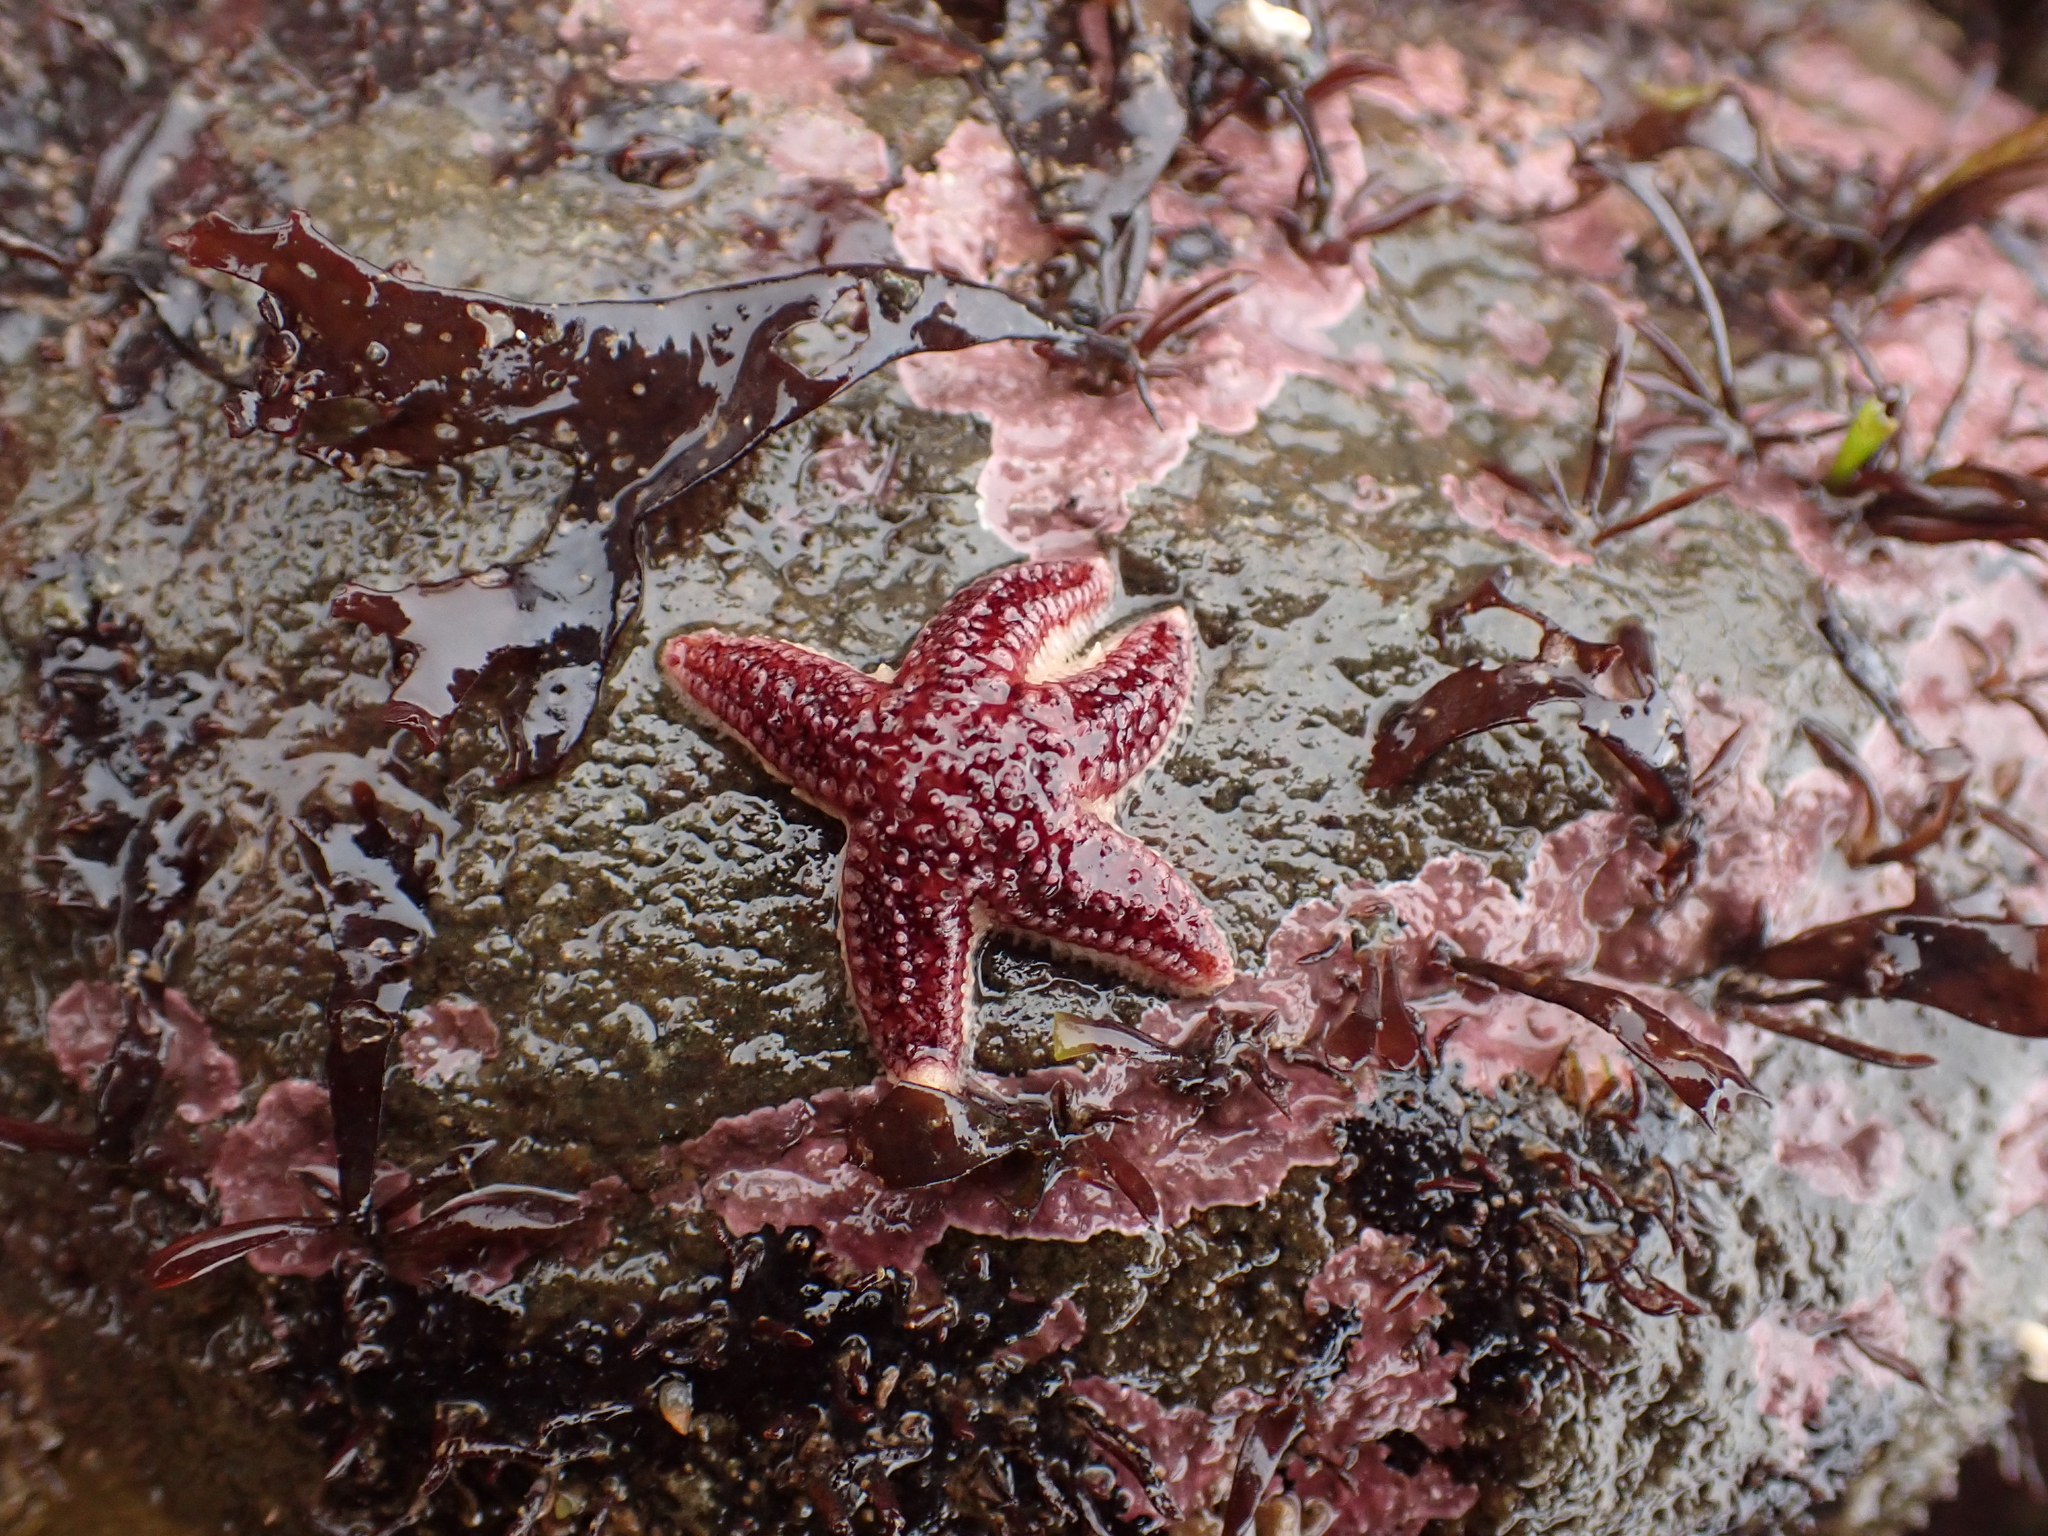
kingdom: Animalia
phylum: Echinodermata
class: Asteroidea
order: Forcipulatida
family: Asteriidae
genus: Asterias
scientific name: Asterias rubens
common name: Common starfish
